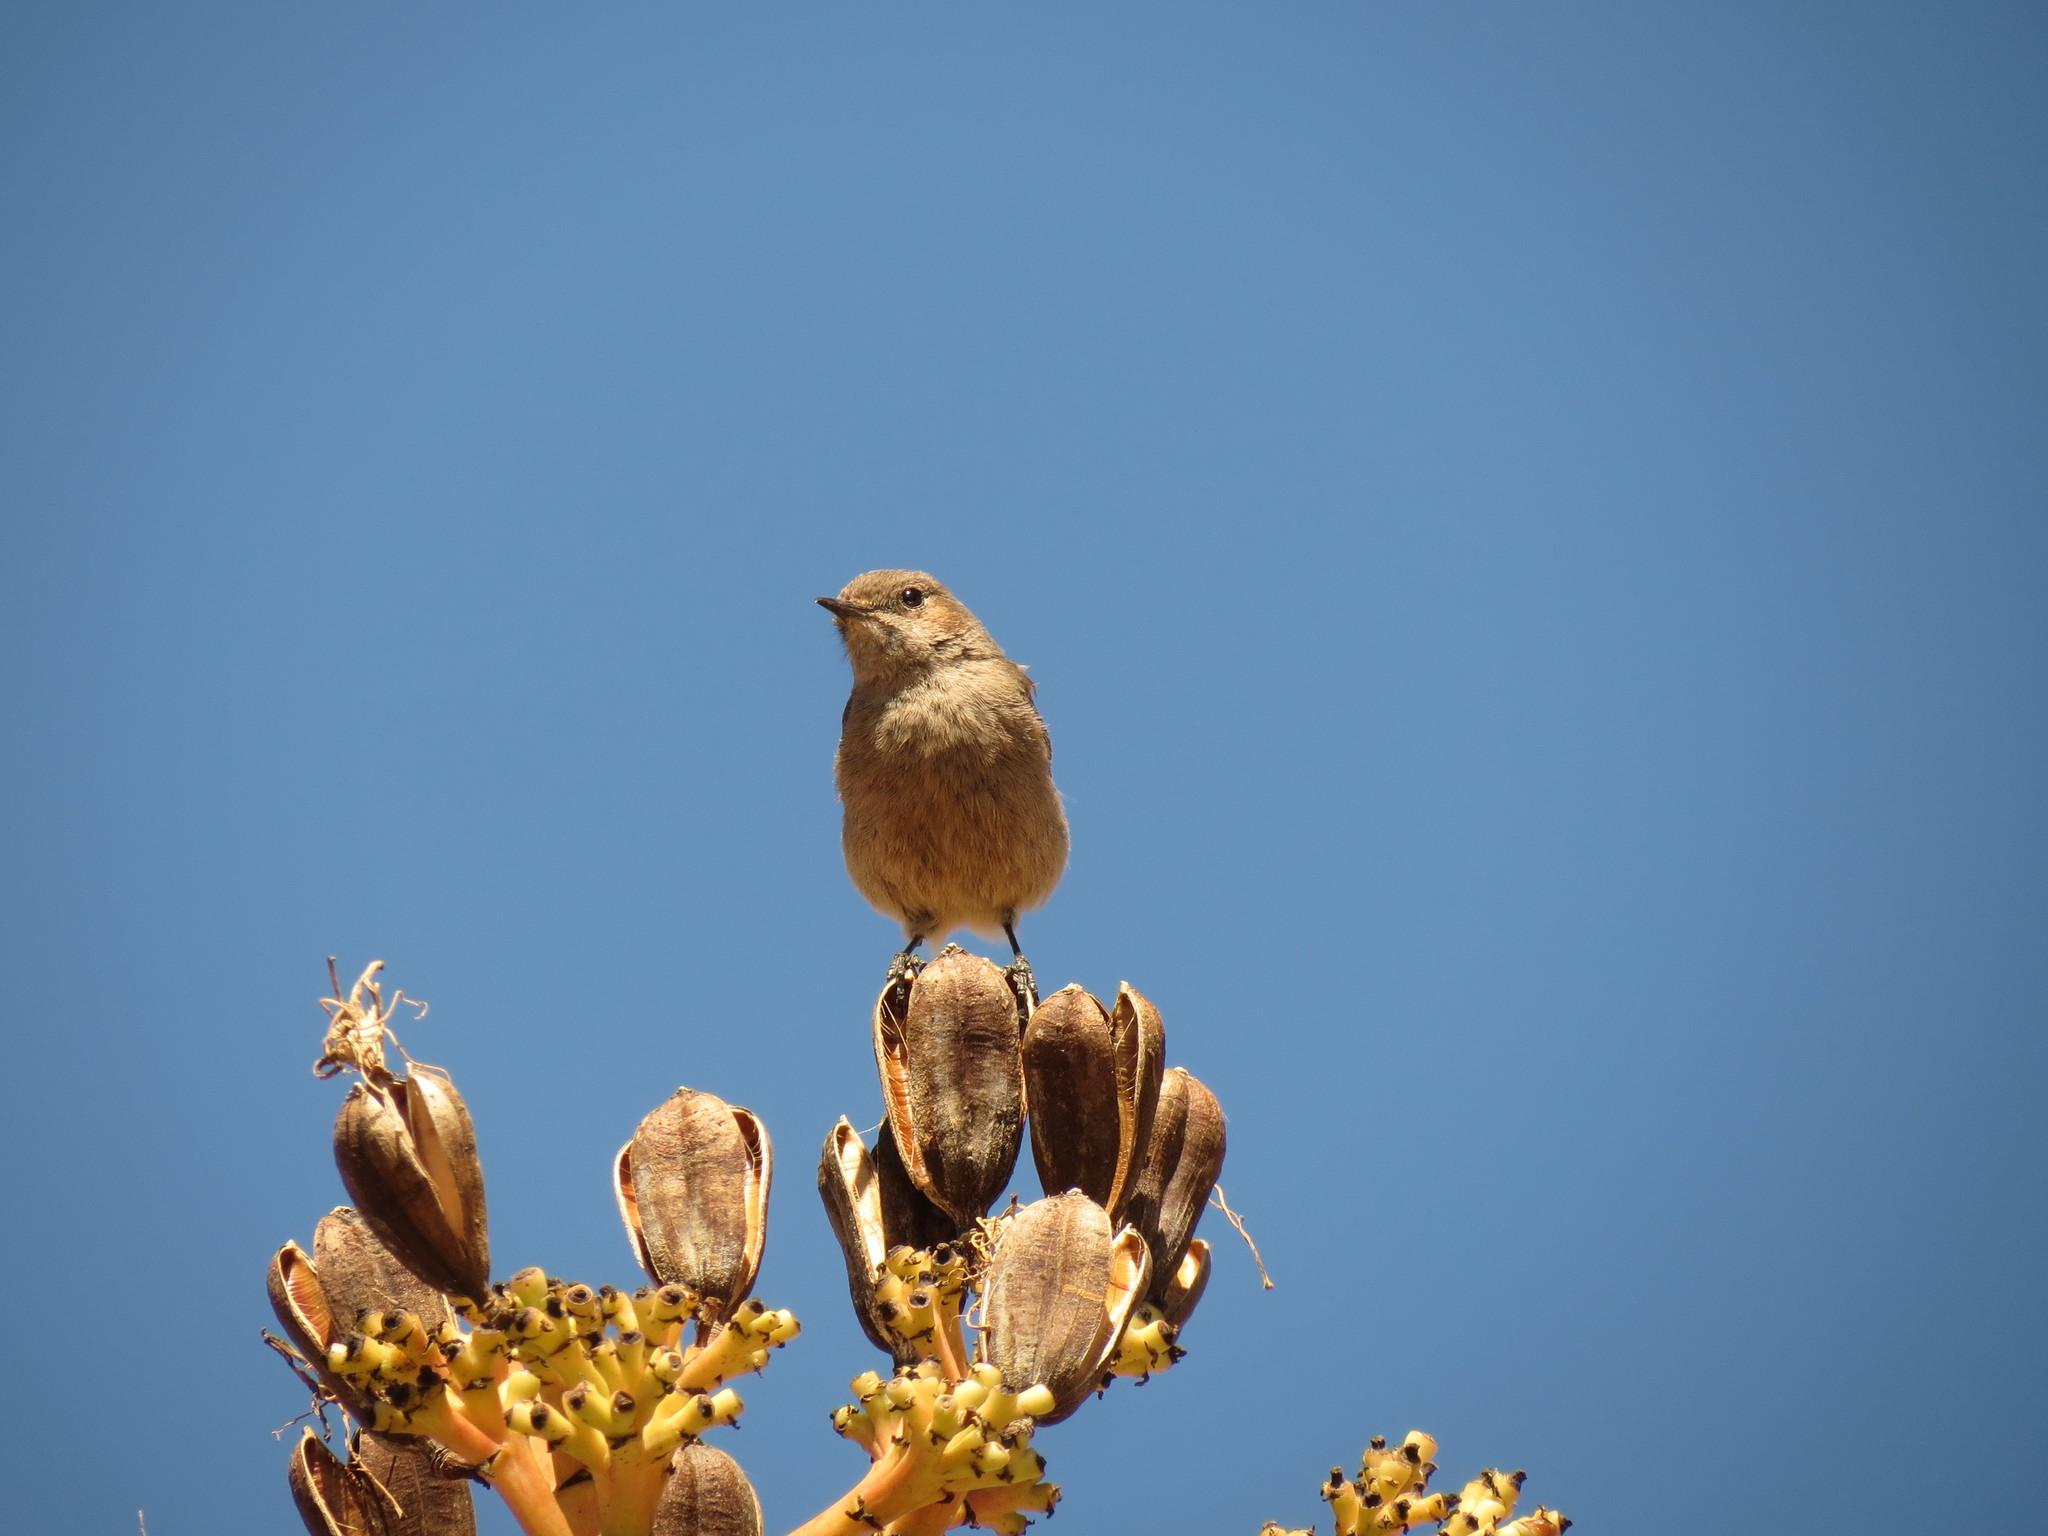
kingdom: Animalia
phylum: Chordata
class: Aves
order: Passeriformes
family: Muscicapidae
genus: Oenanthe
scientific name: Oenanthe familiaris
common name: Familiar chat
